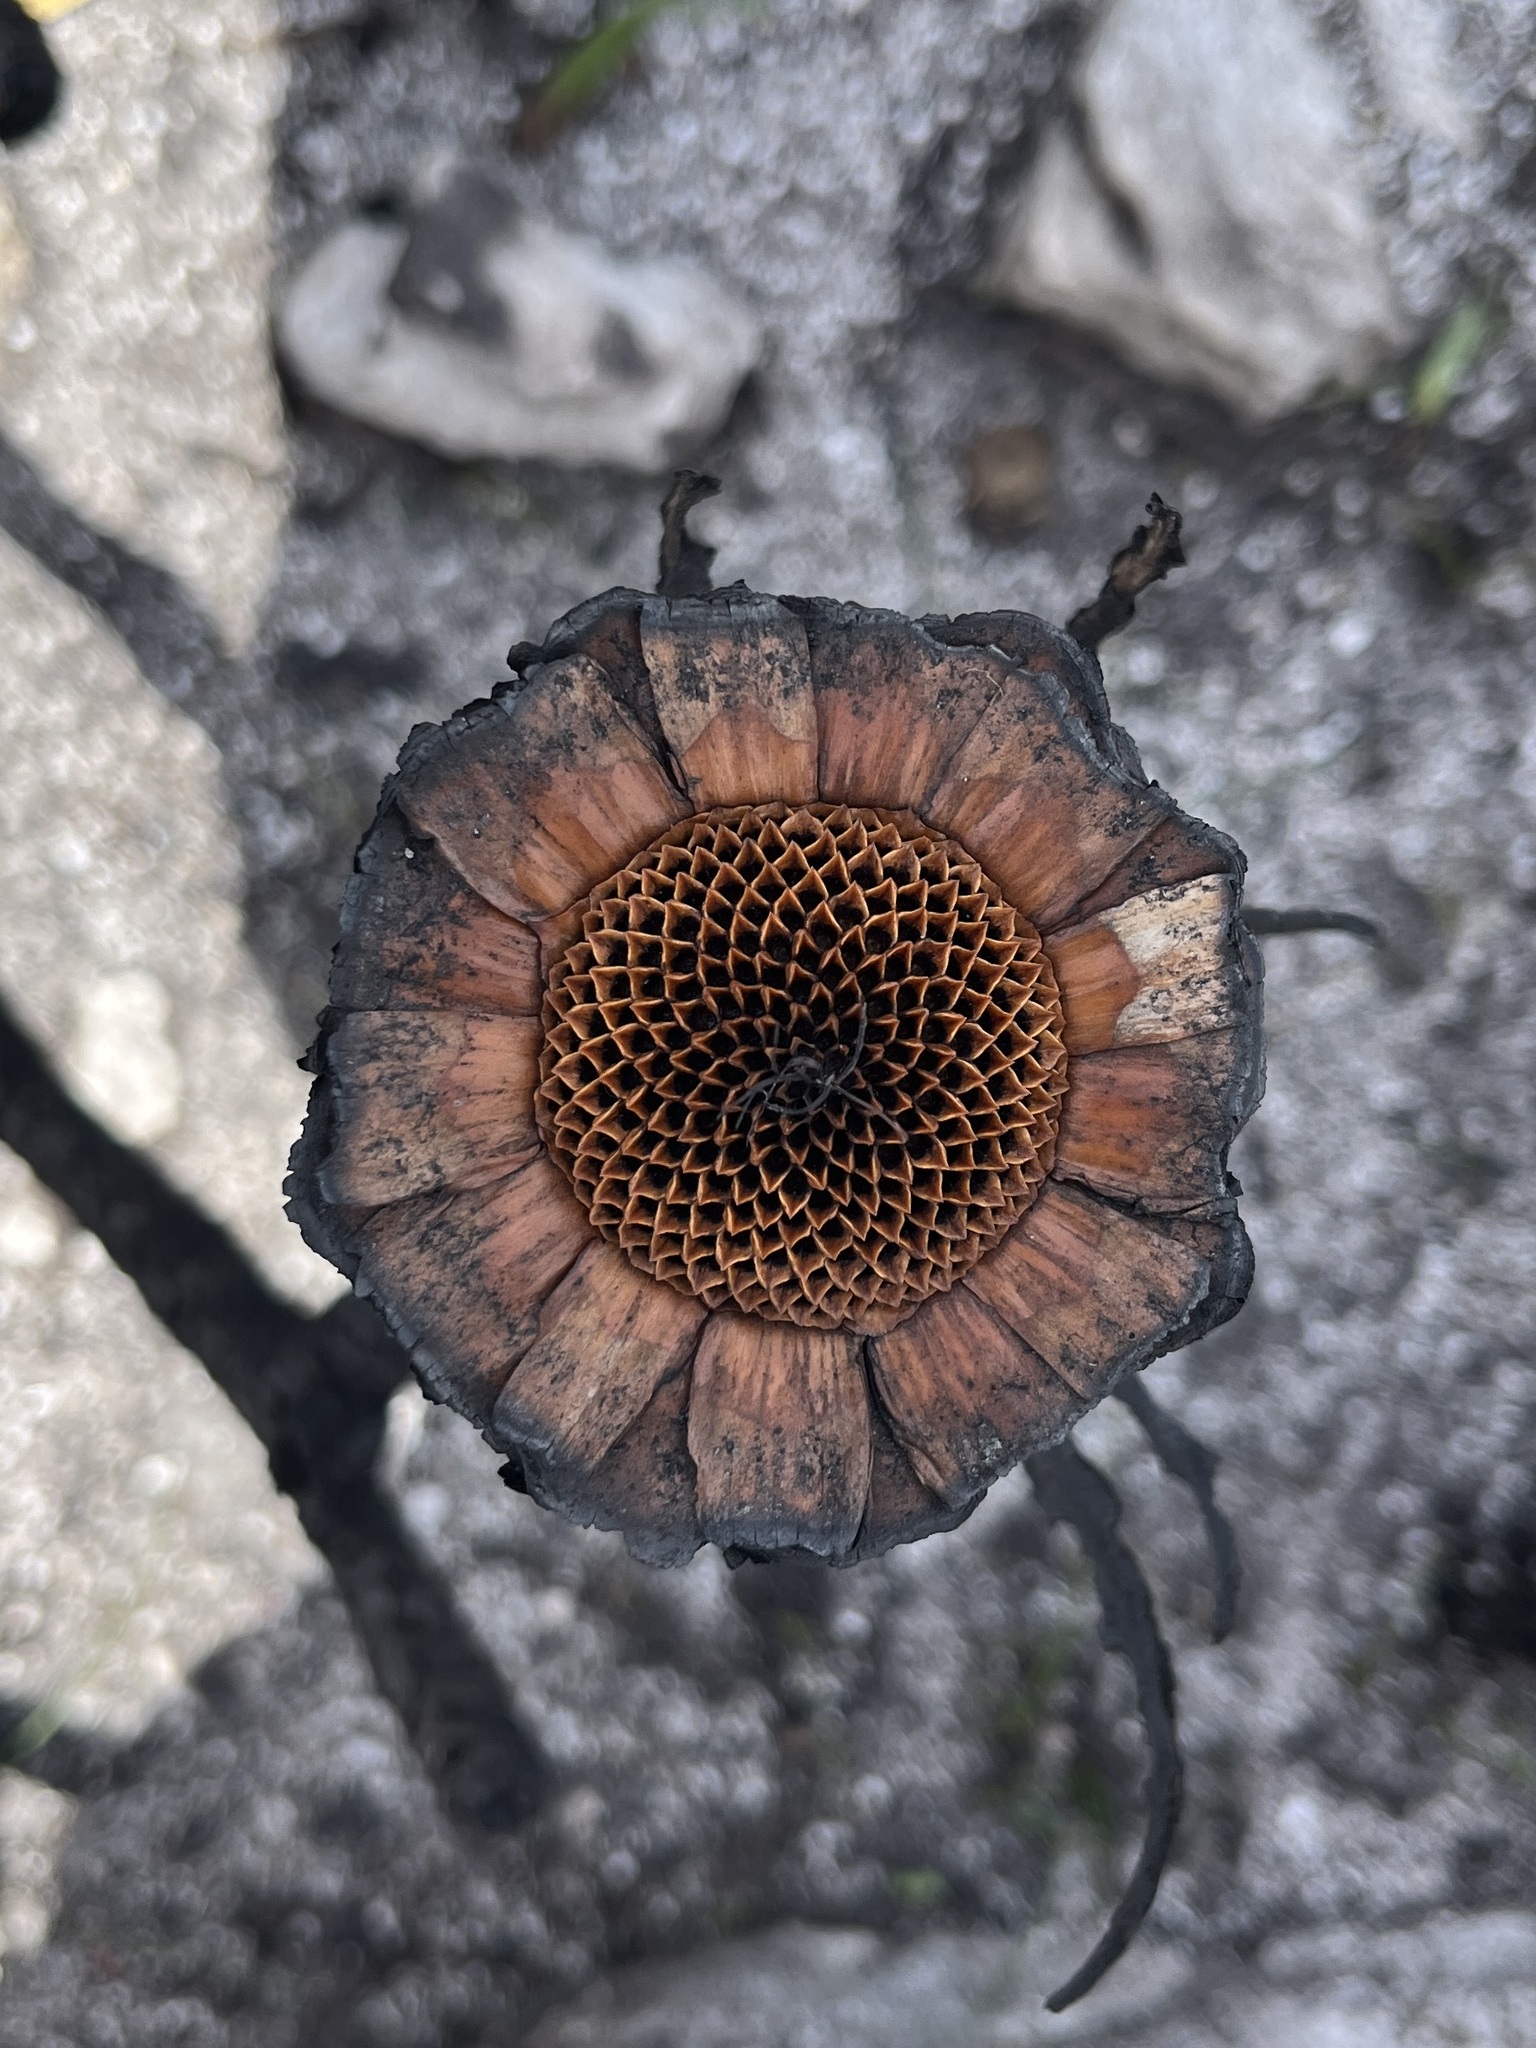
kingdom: Plantae
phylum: Tracheophyta
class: Magnoliopsida
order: Proteales
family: Proteaceae
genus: Protea
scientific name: Protea cynaroides
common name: King protea
